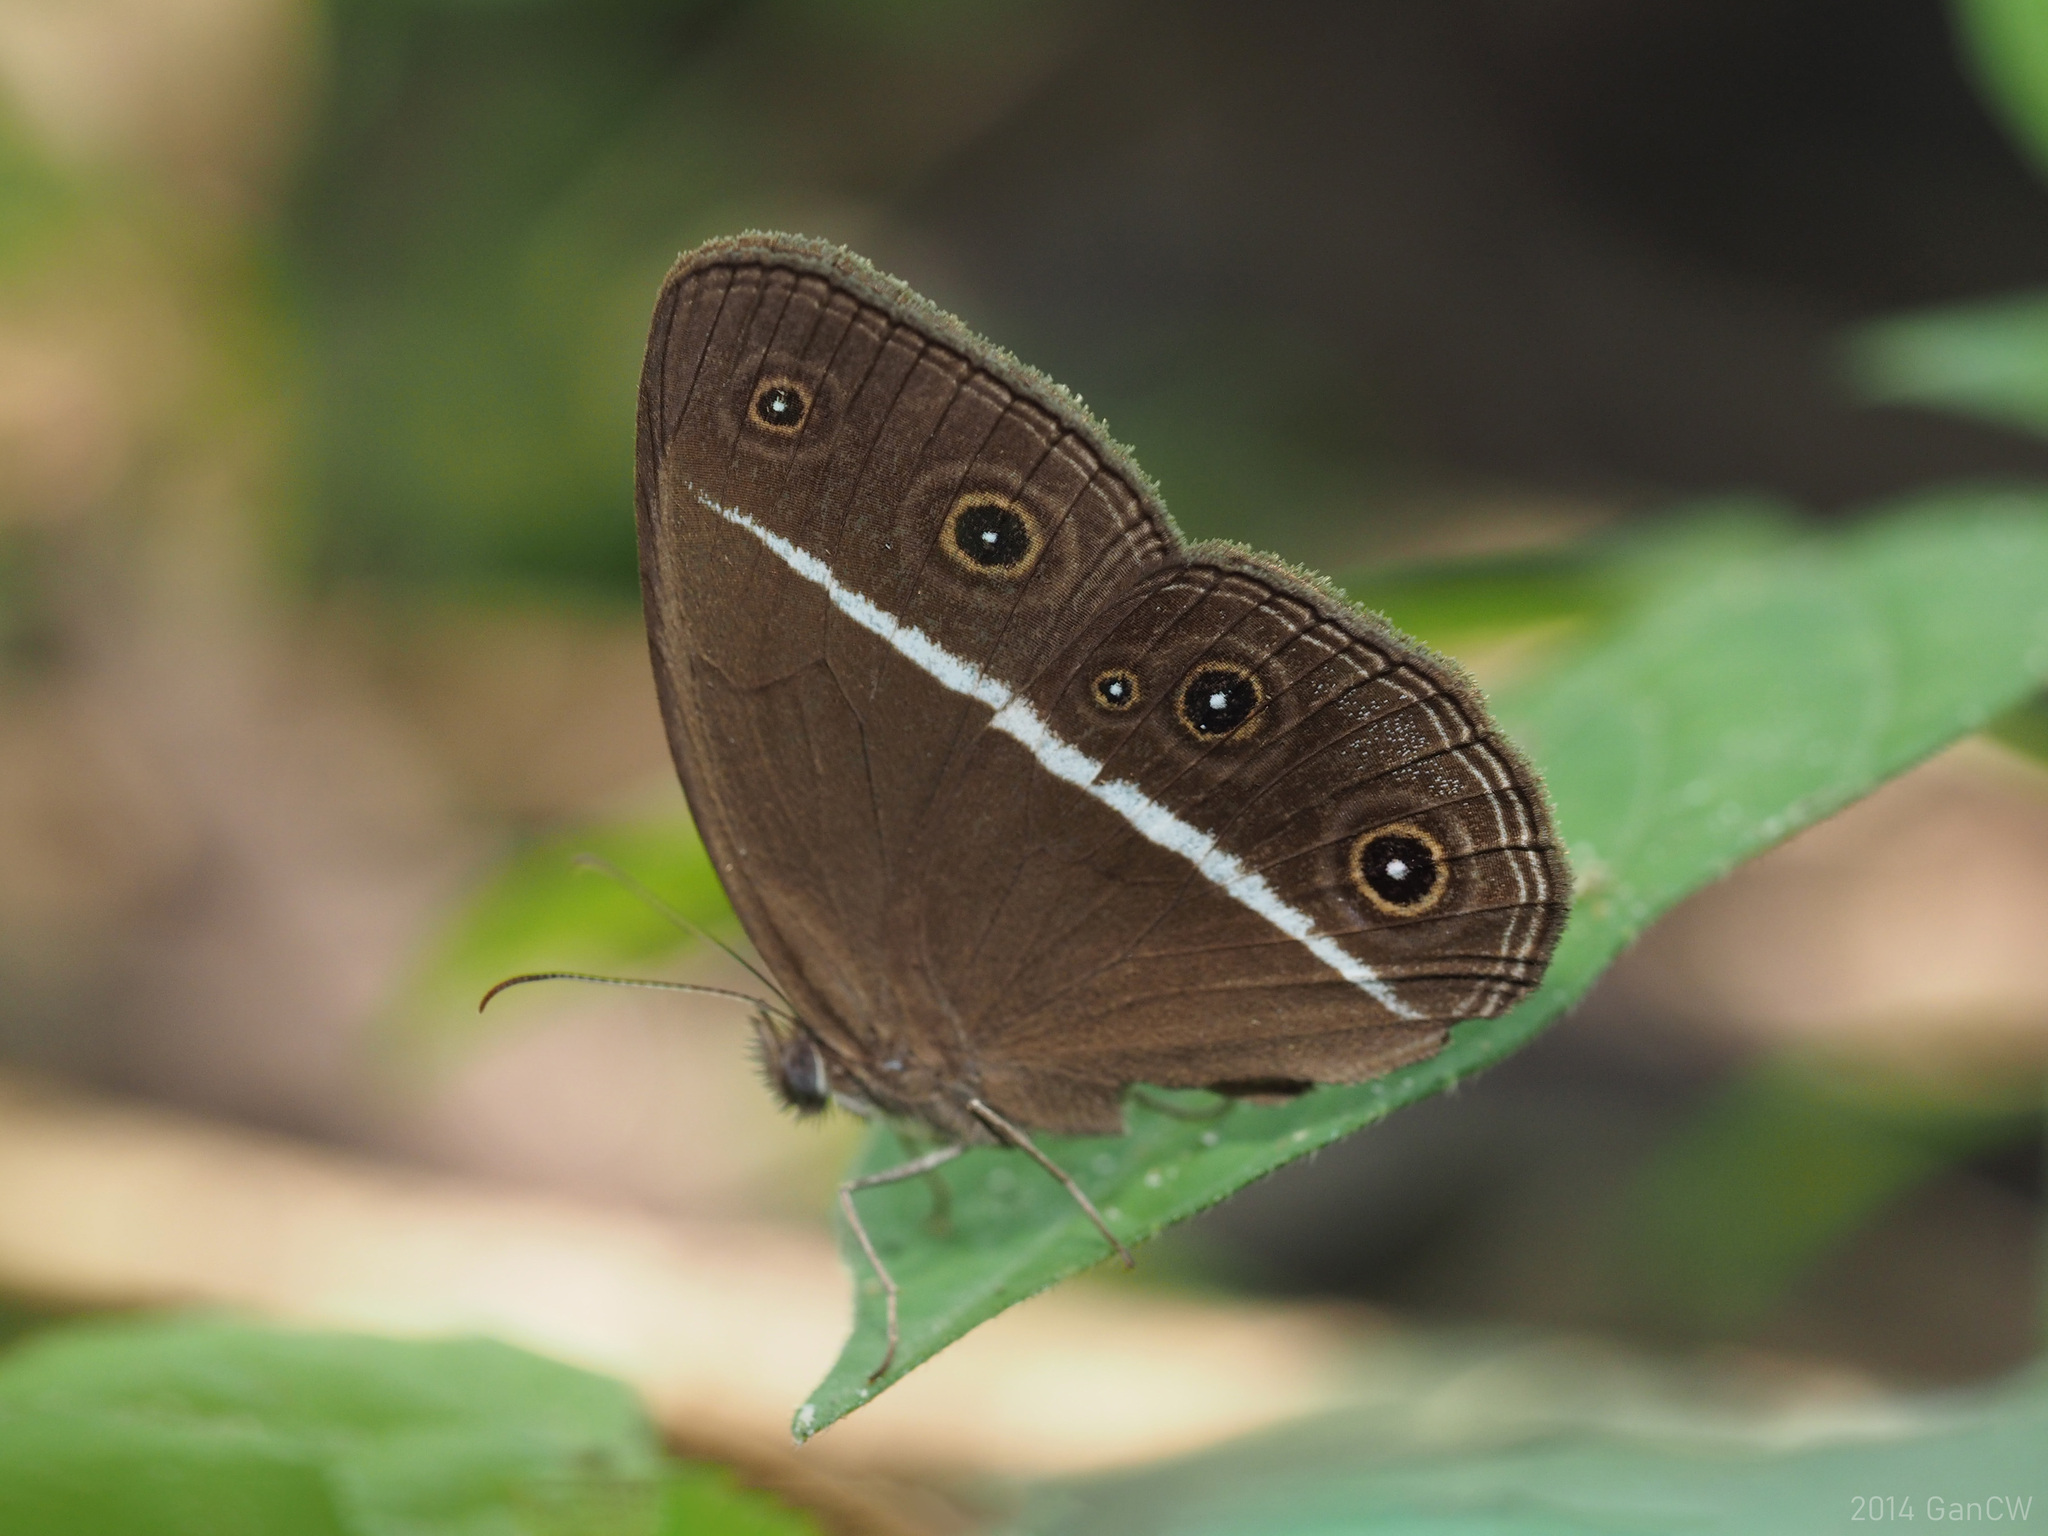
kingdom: Animalia
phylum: Arthropoda
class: Insecta
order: Lepidoptera
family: Nymphalidae
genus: Orsotriaena
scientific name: Orsotriaena medus
